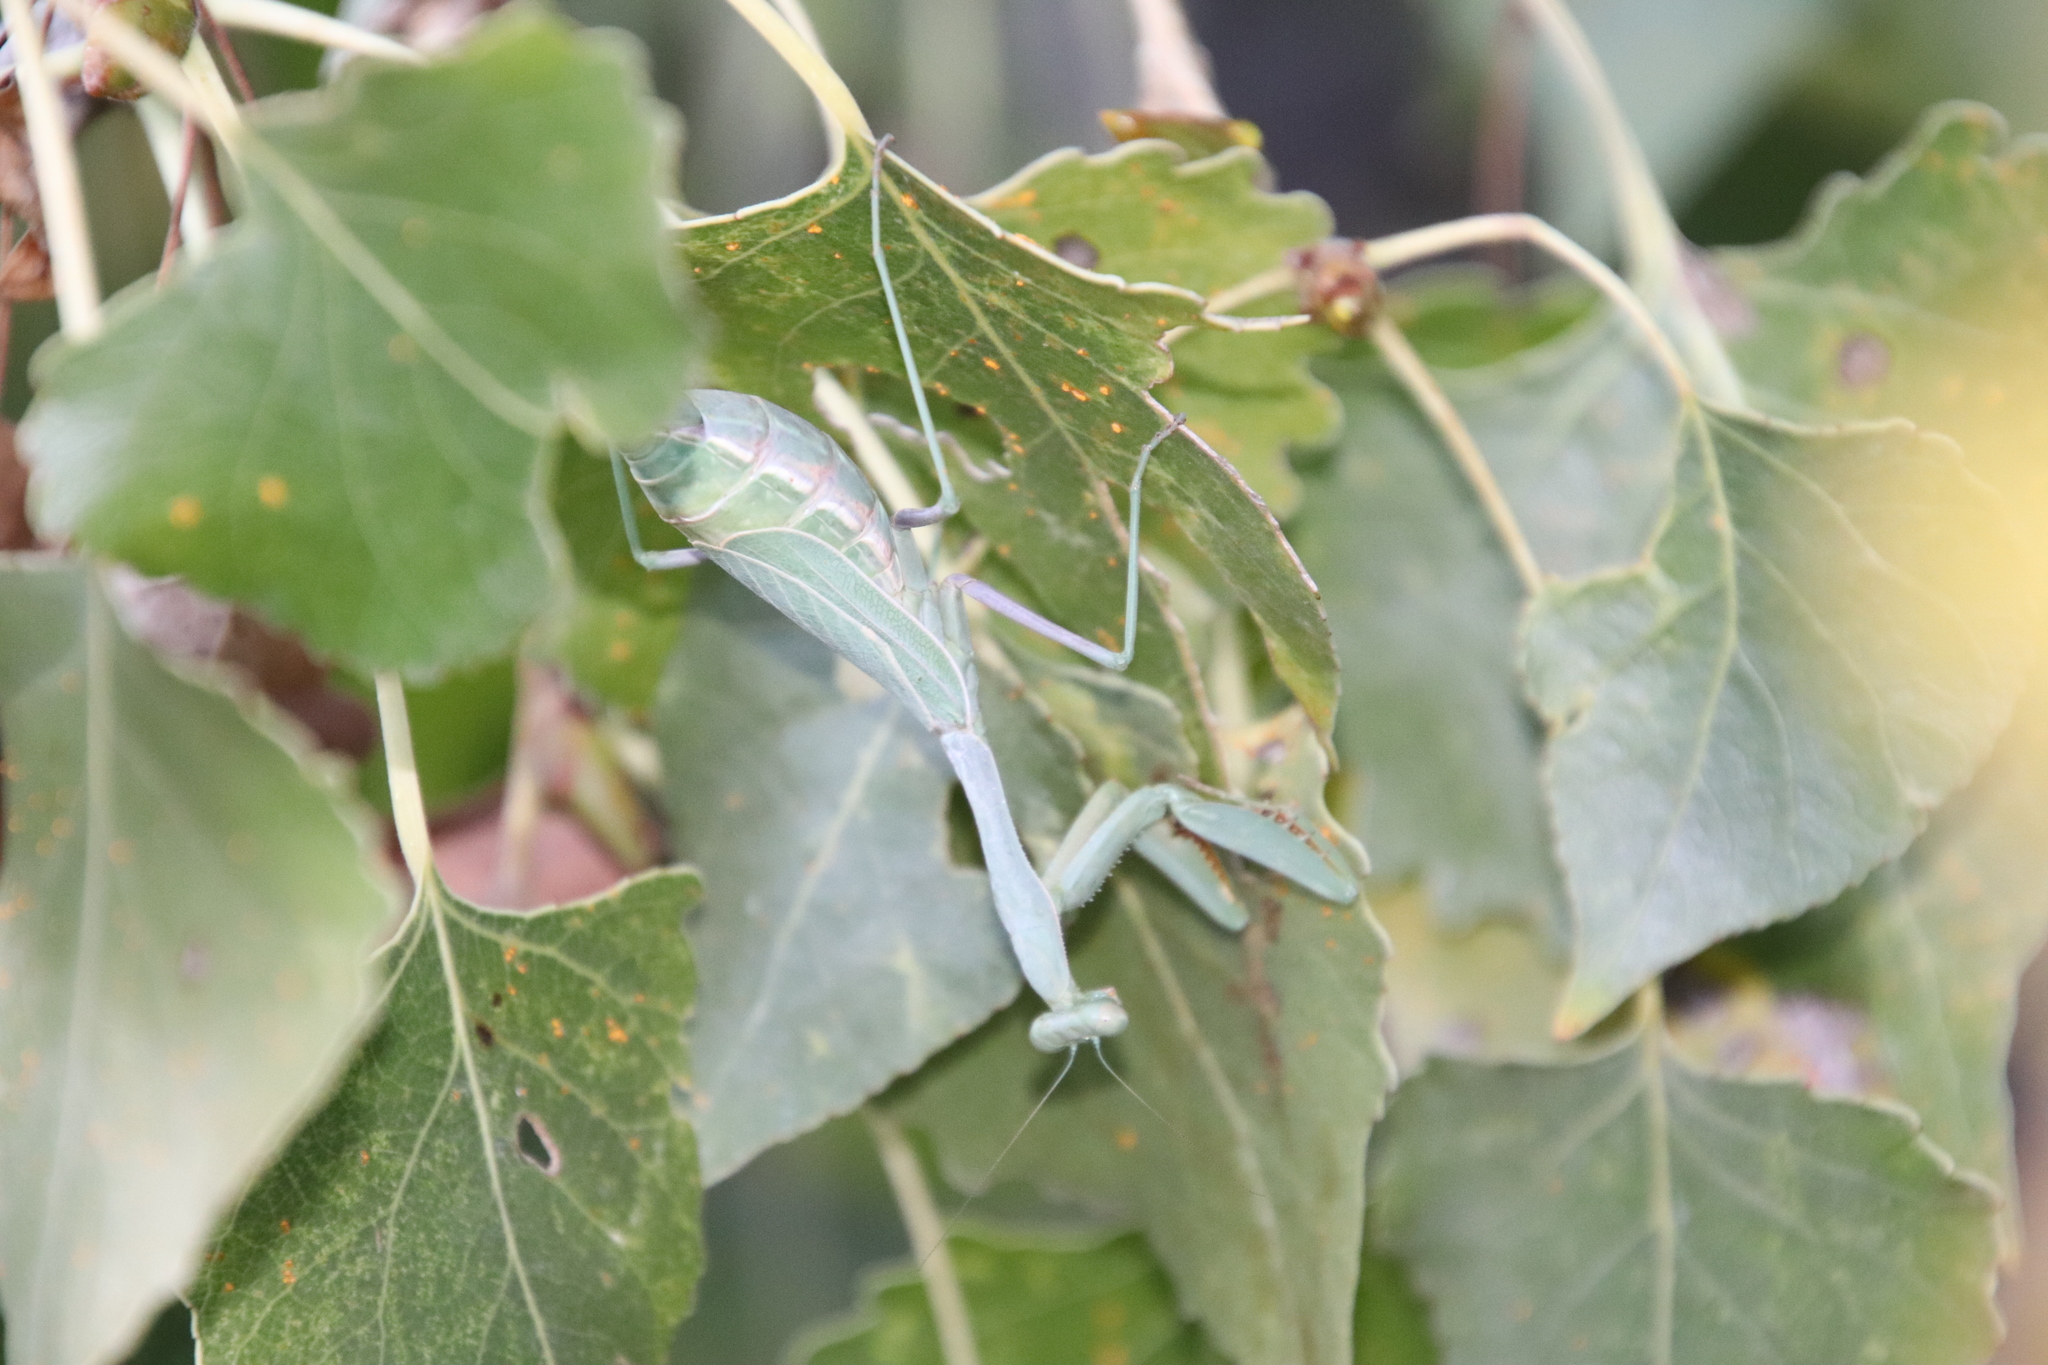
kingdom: Animalia
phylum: Arthropoda
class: Insecta
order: Mantodea
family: Mantidae
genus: Stagmomantis
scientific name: Stagmomantis limbata
